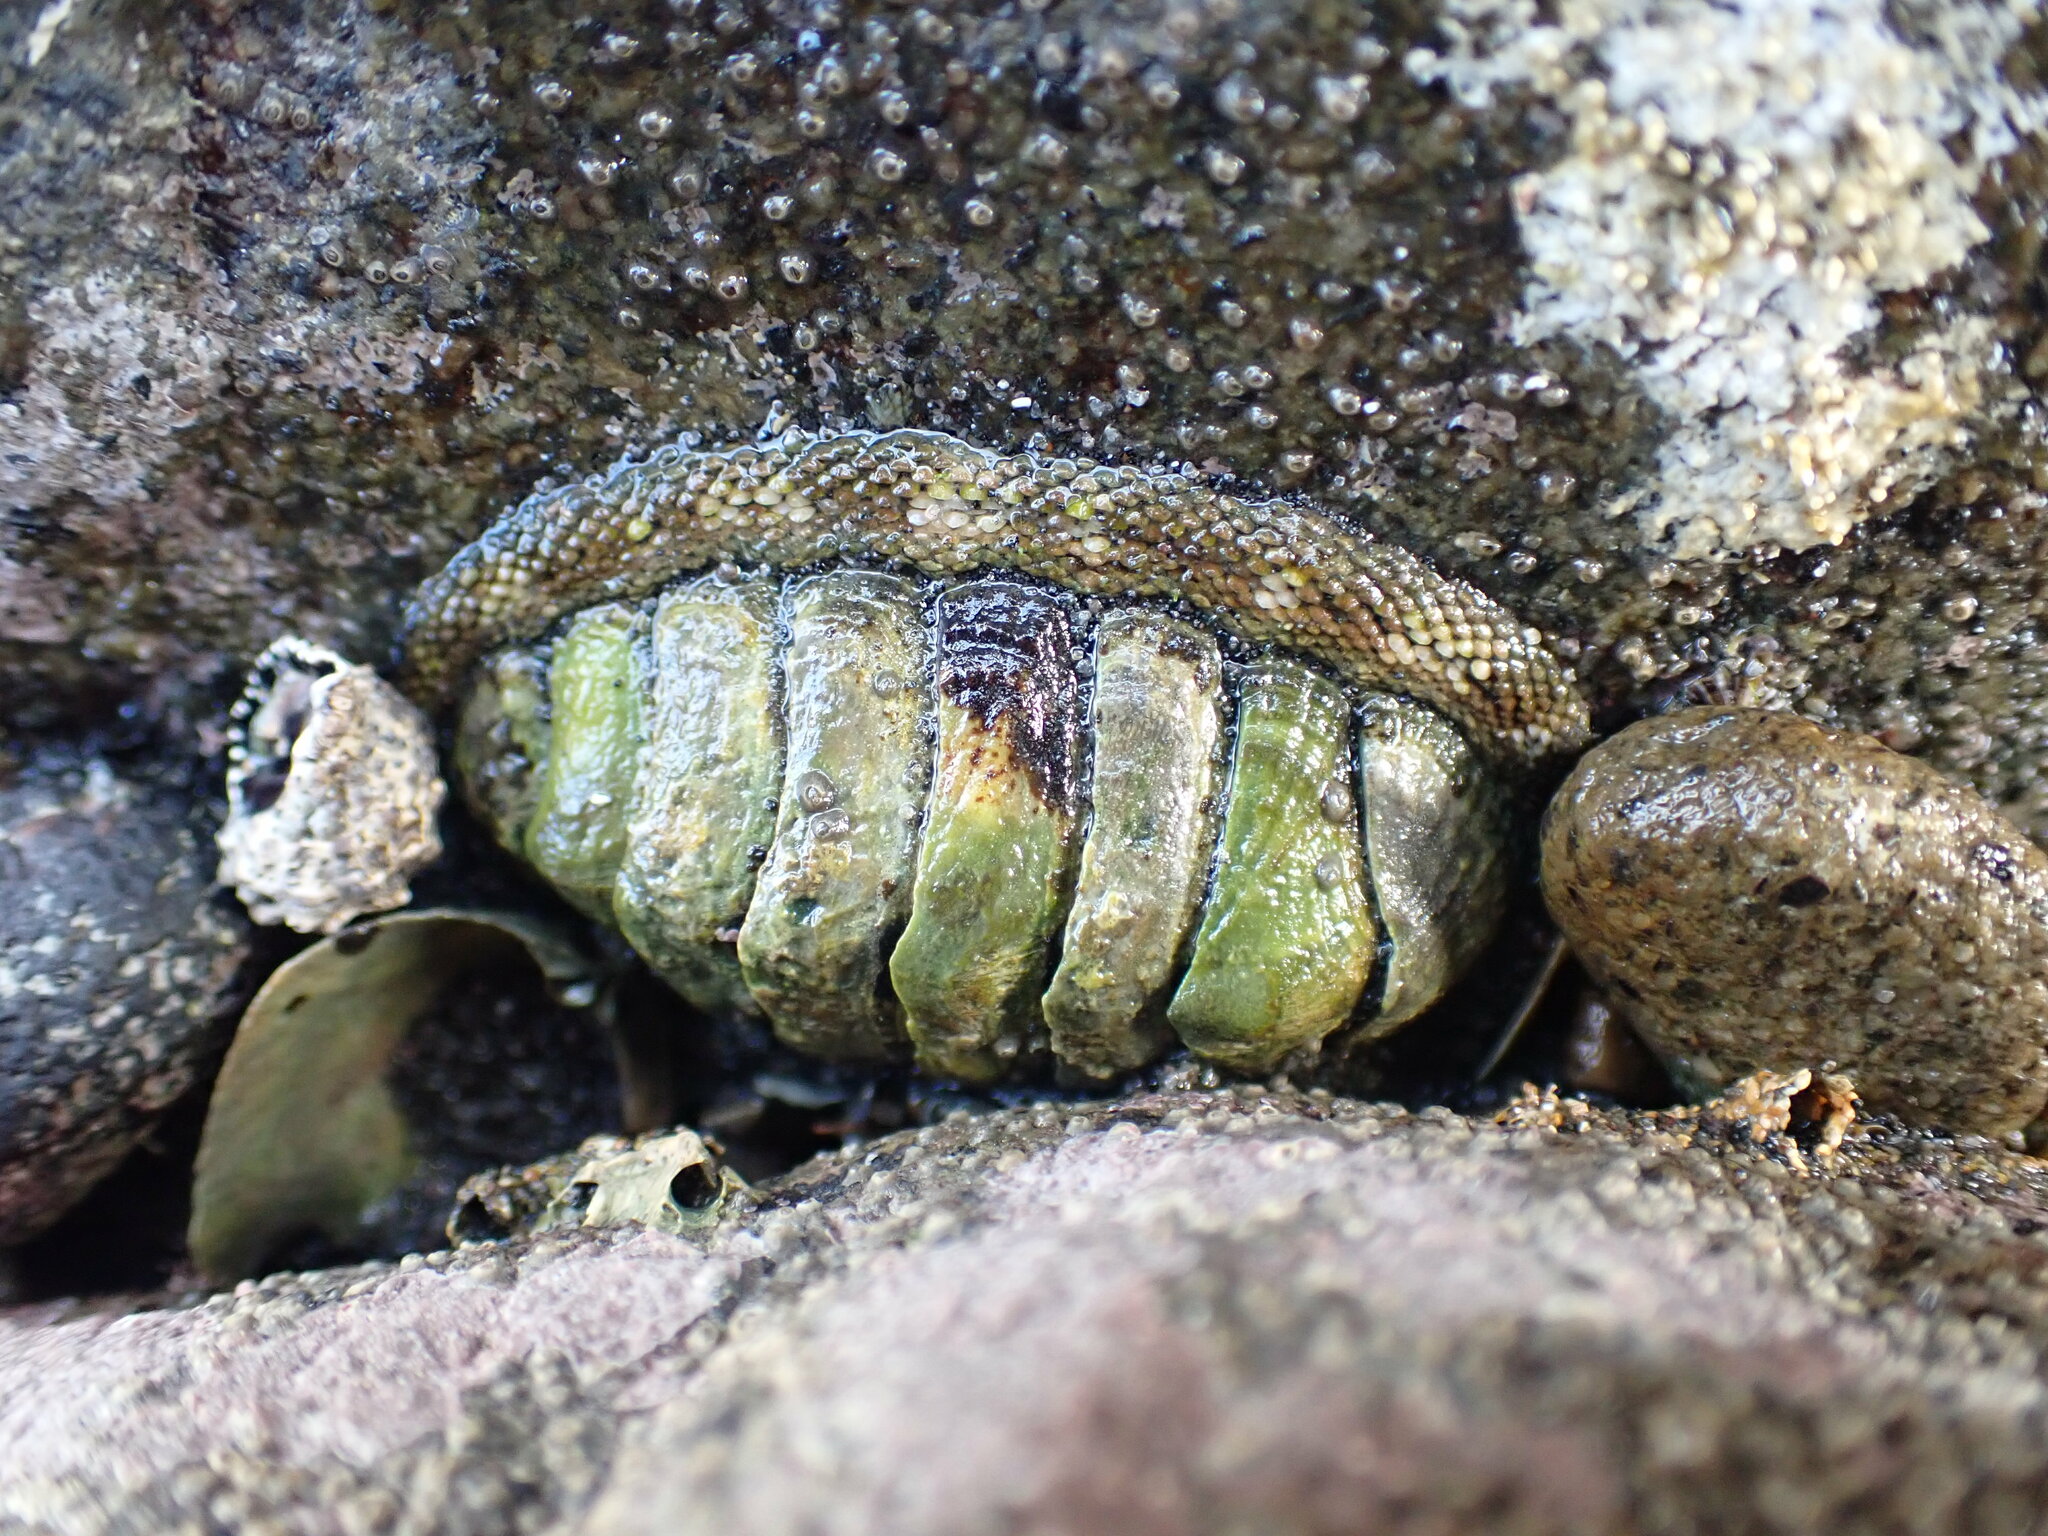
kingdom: Animalia
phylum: Mollusca
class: Polyplacophora
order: Chitonida
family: Chitonidae
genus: Sypharochiton
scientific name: Sypharochiton pelliserpentis
